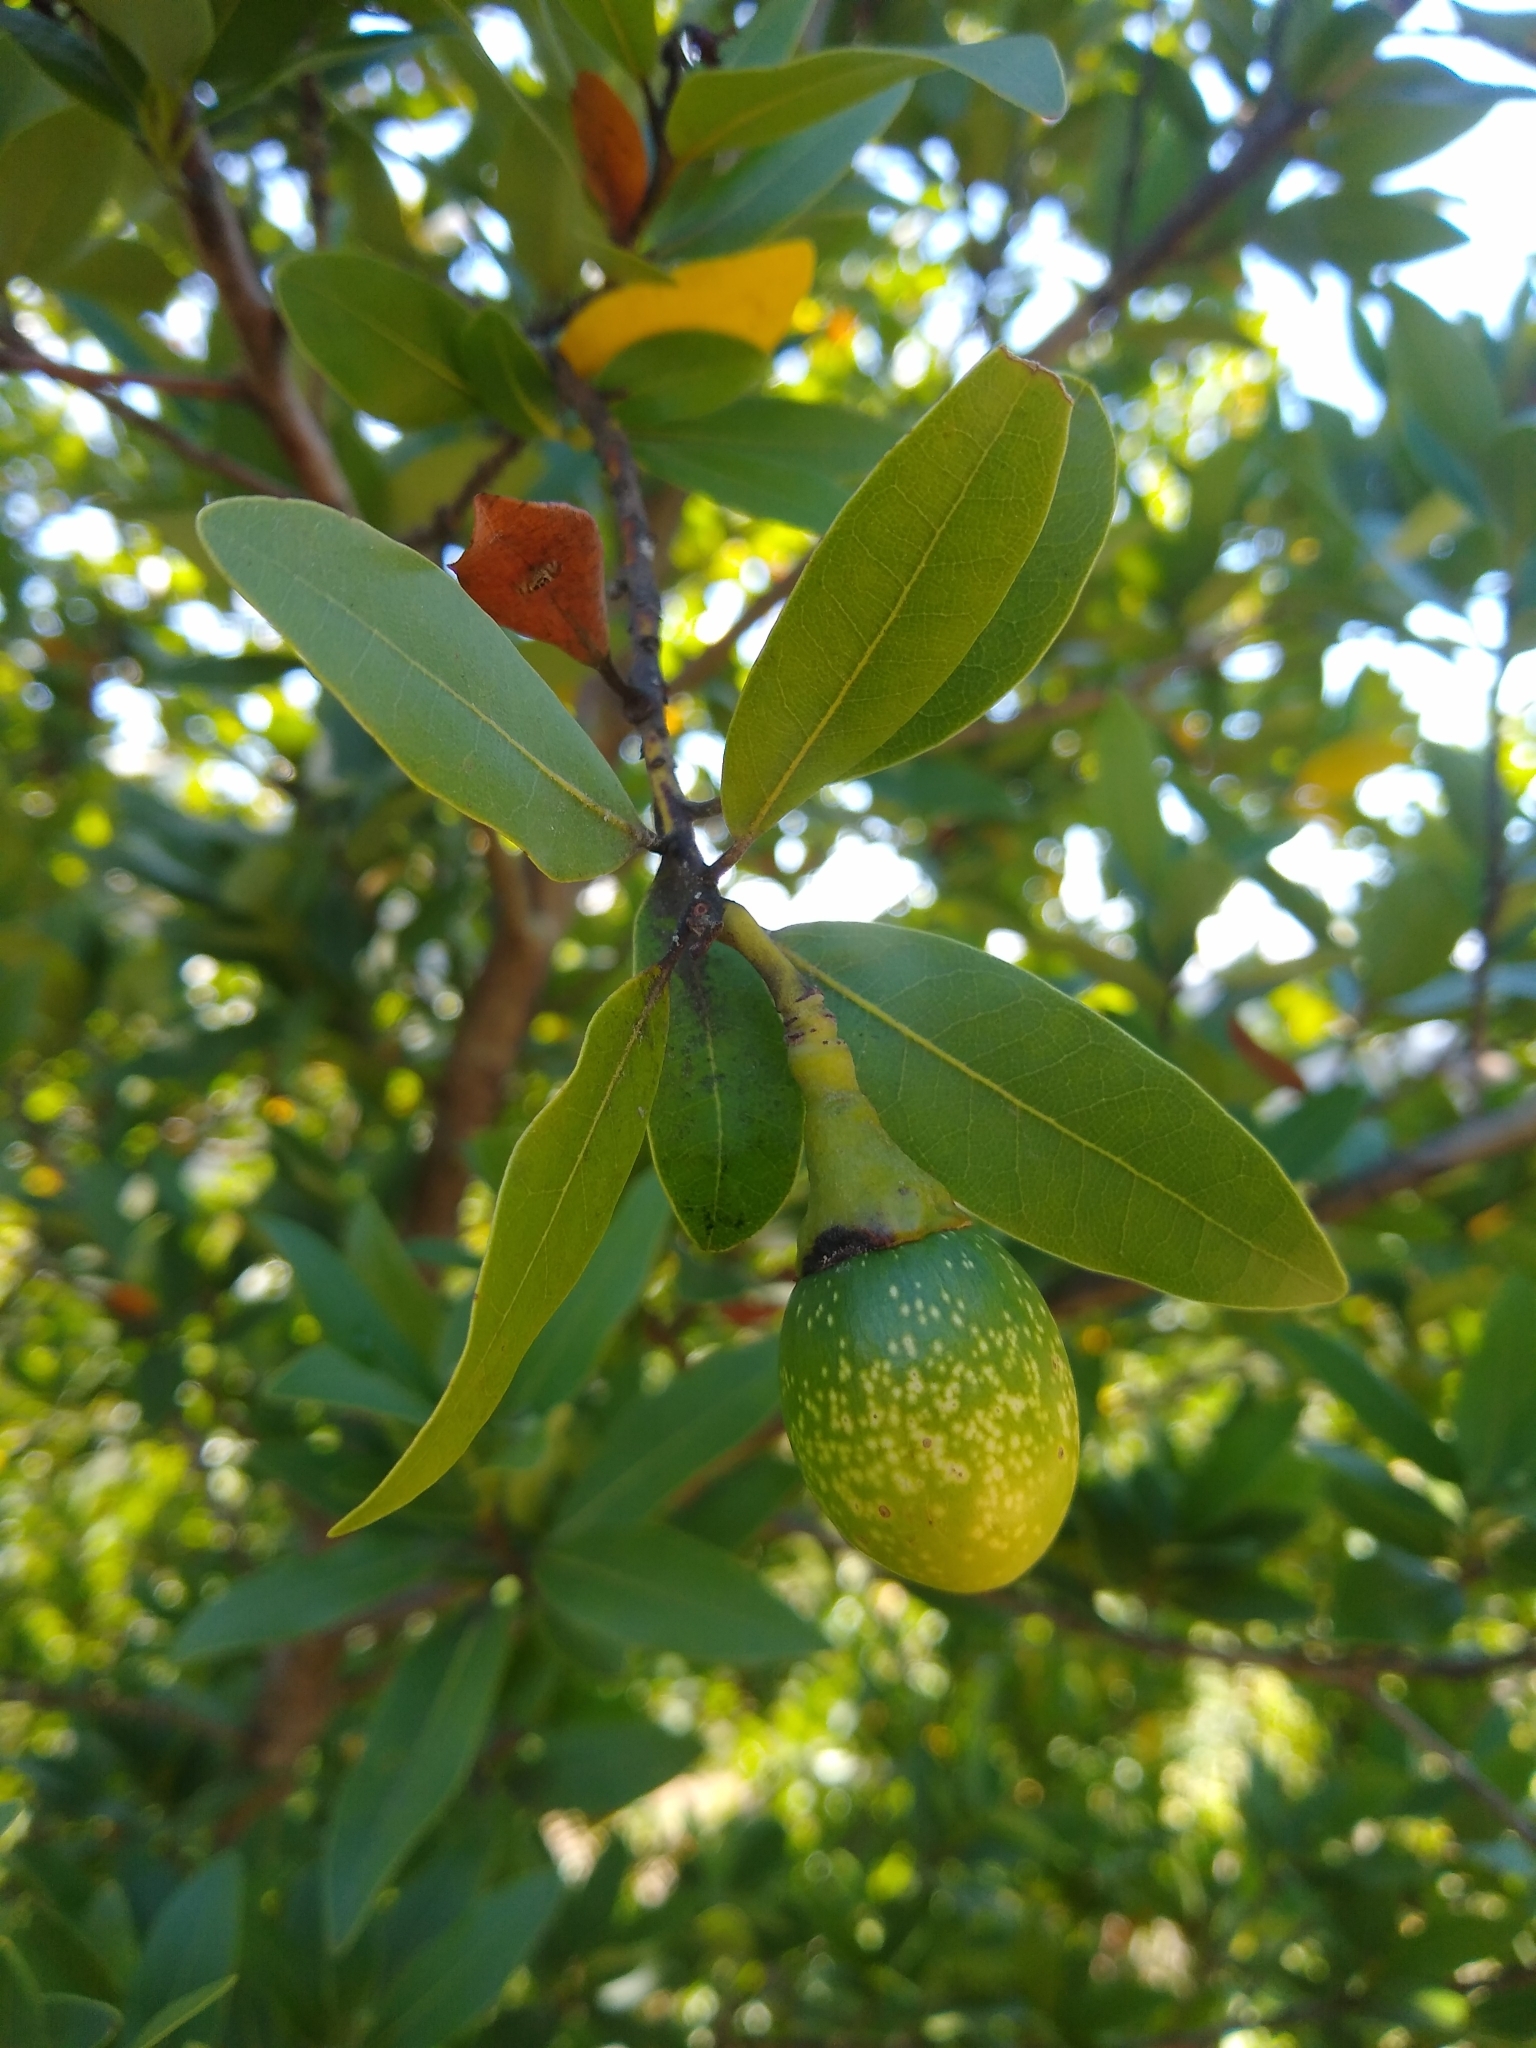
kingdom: Plantae
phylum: Tracheophyta
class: Magnoliopsida
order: Laurales
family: Lauraceae
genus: Umbellularia
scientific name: Umbellularia californica
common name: California bay
